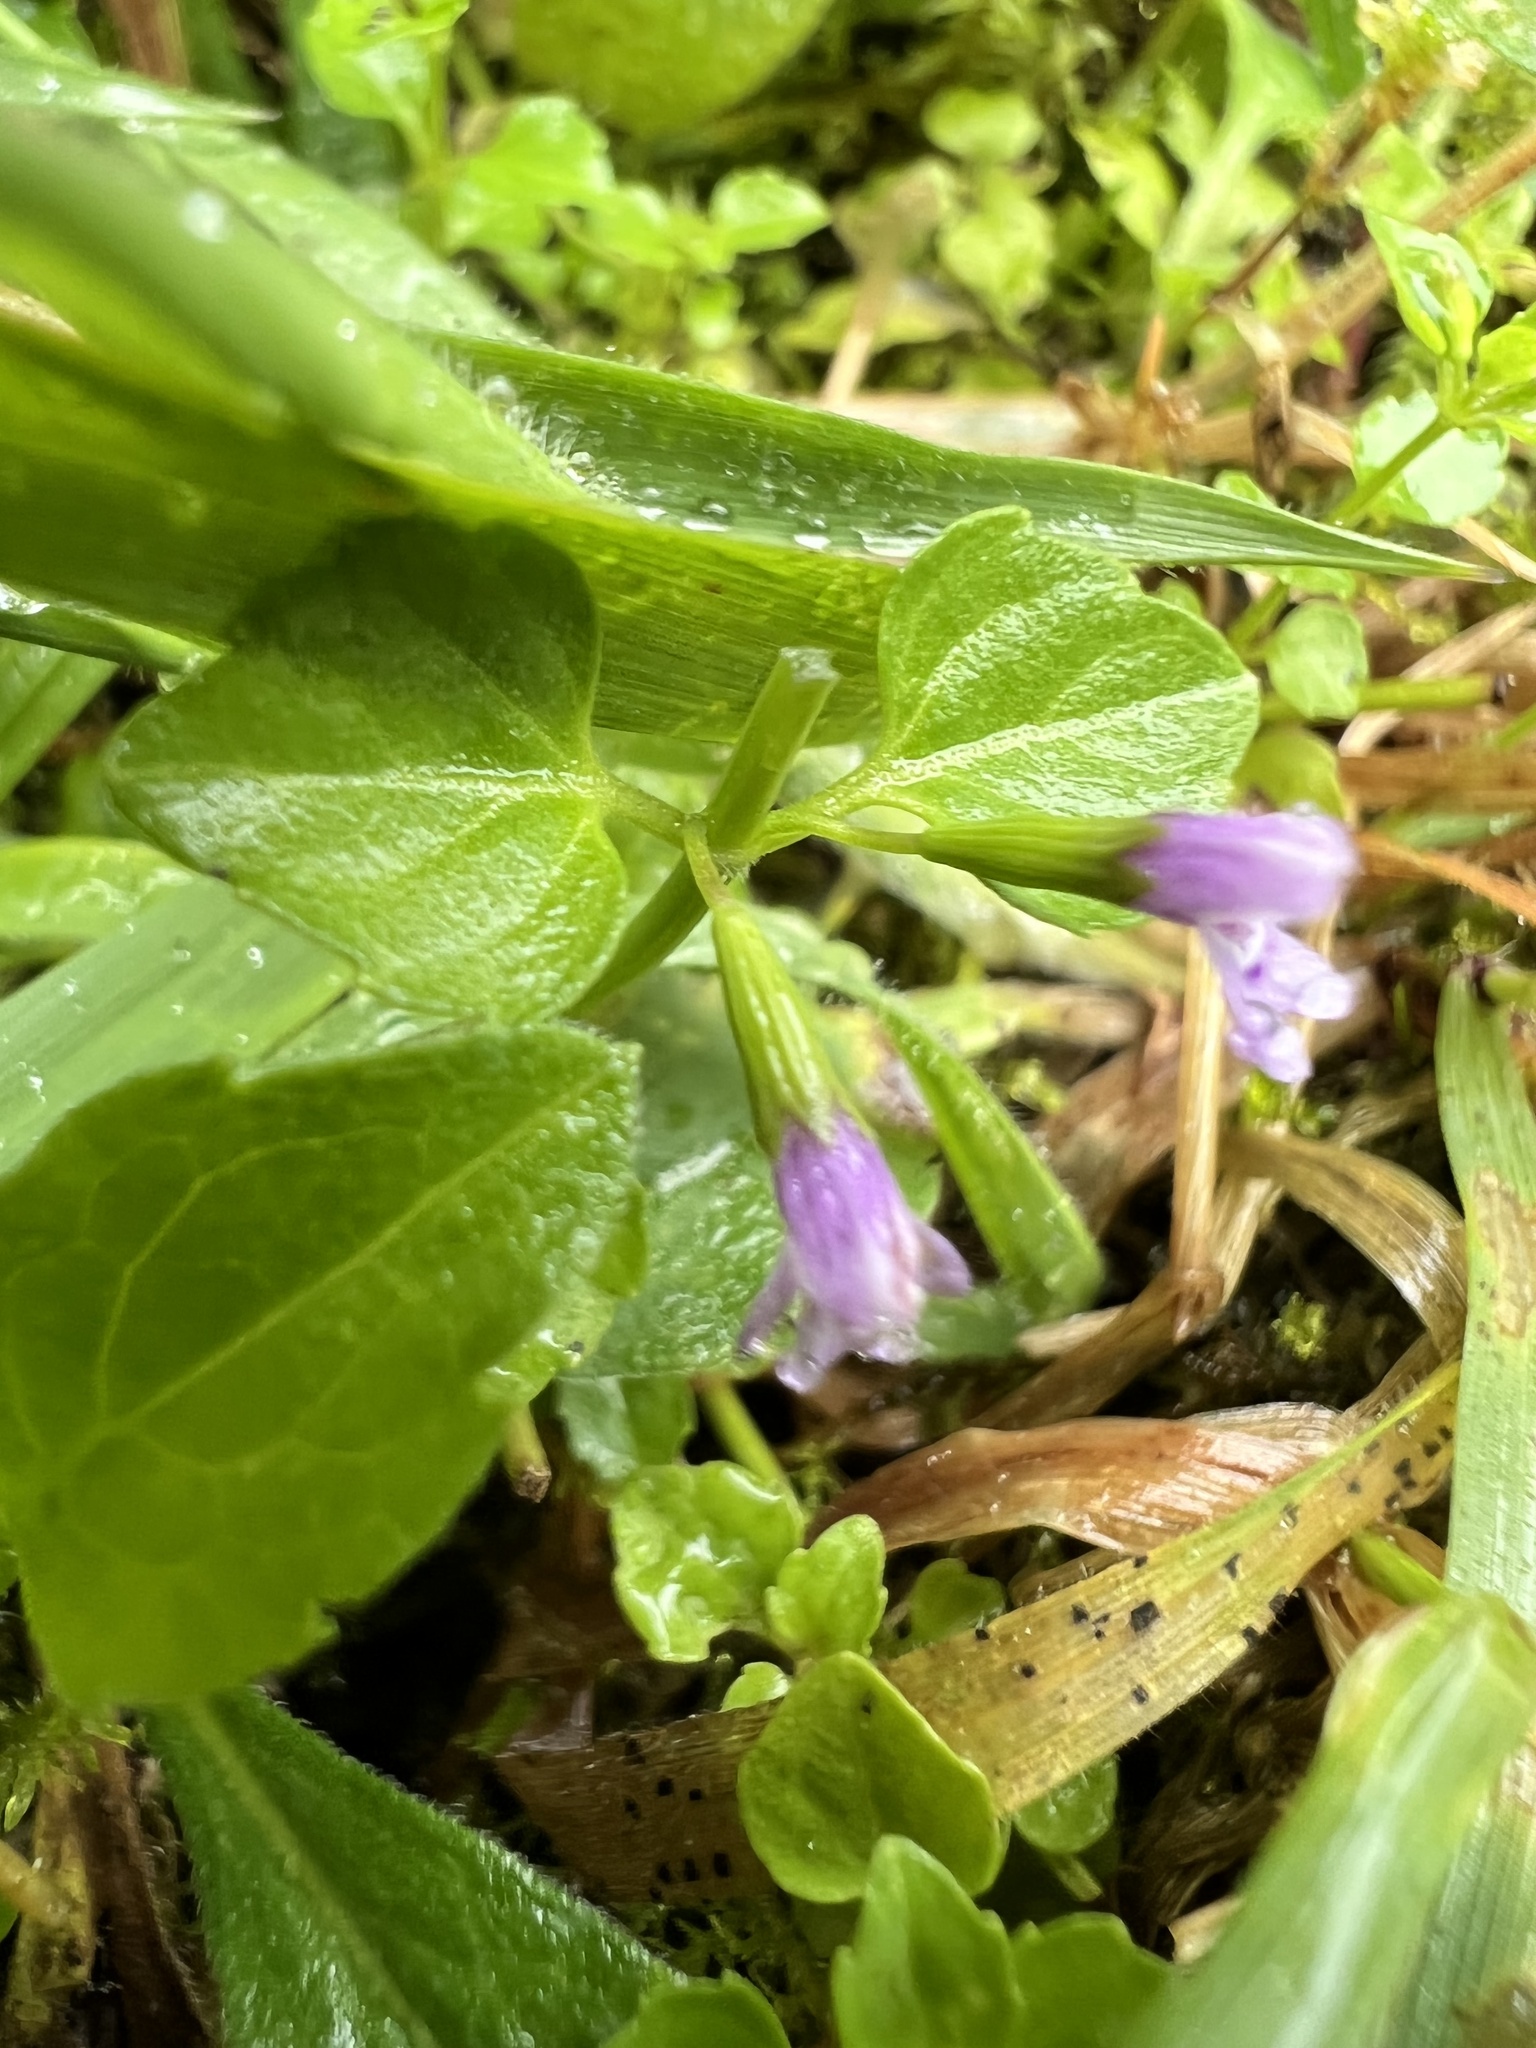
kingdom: Plantae
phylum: Tracheophyta
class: Magnoliopsida
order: Lamiales
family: Lamiaceae
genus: Clinopodium
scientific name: Clinopodium brownei
